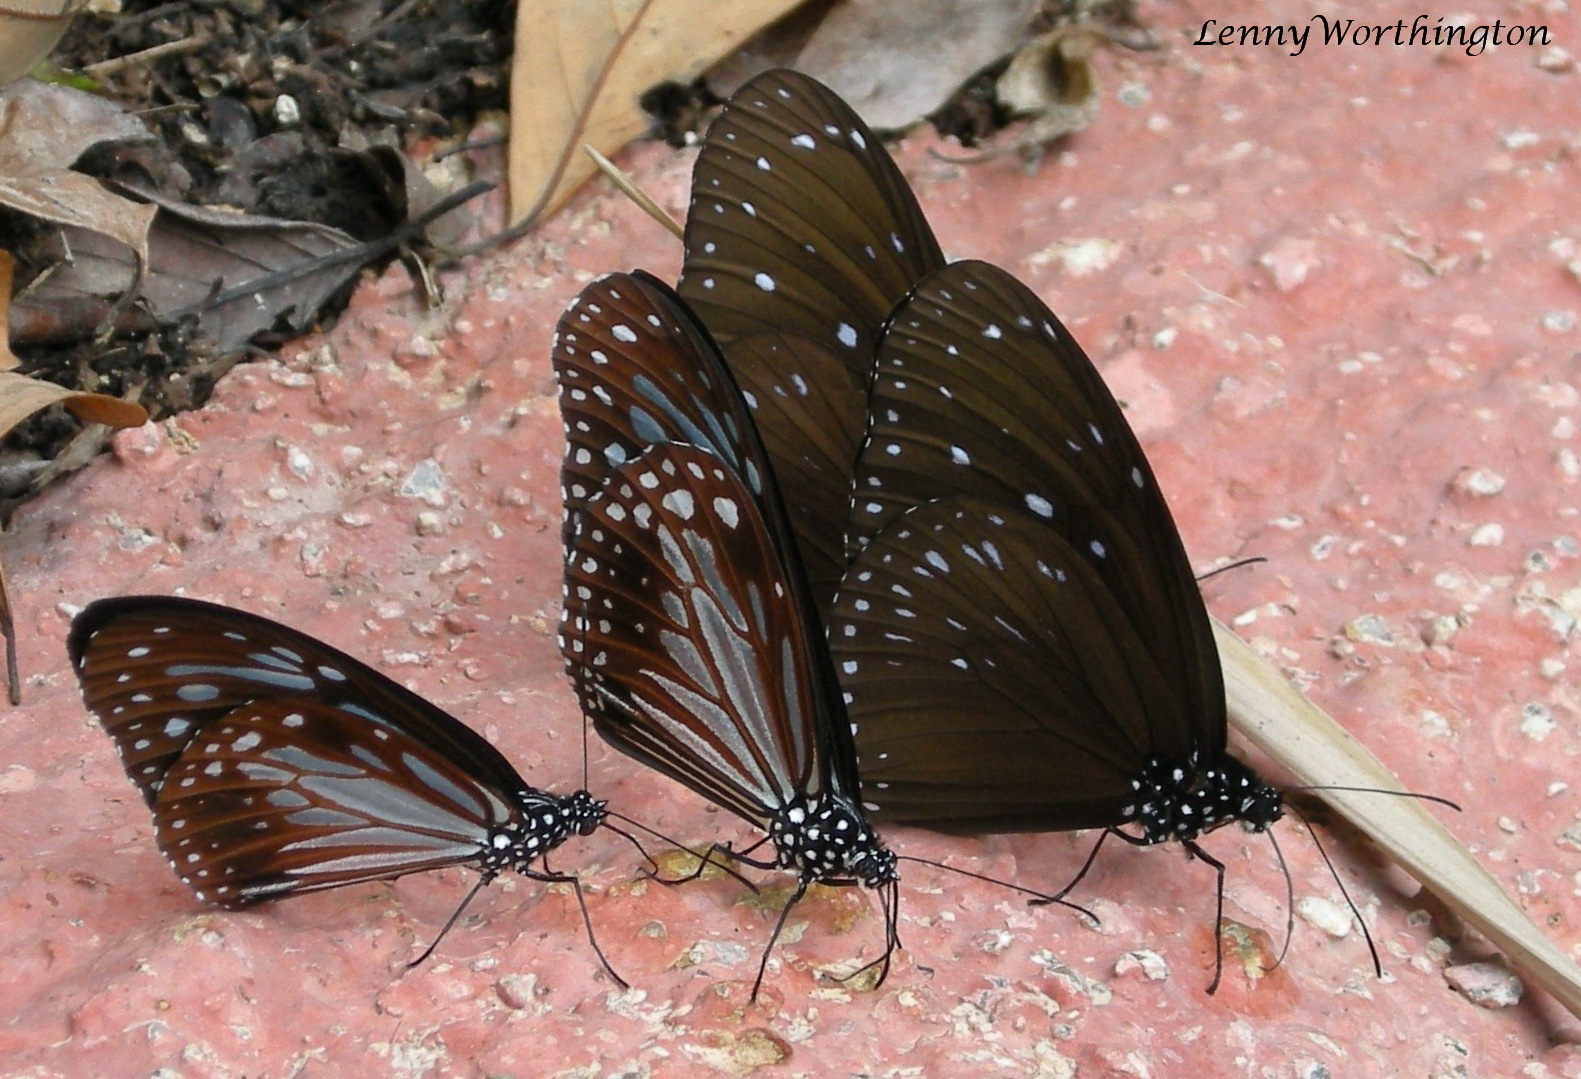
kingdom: Animalia
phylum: Arthropoda
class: Insecta
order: Lepidoptera
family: Nymphalidae
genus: Parantica
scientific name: Parantica melaneus
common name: Chocolate tiger
